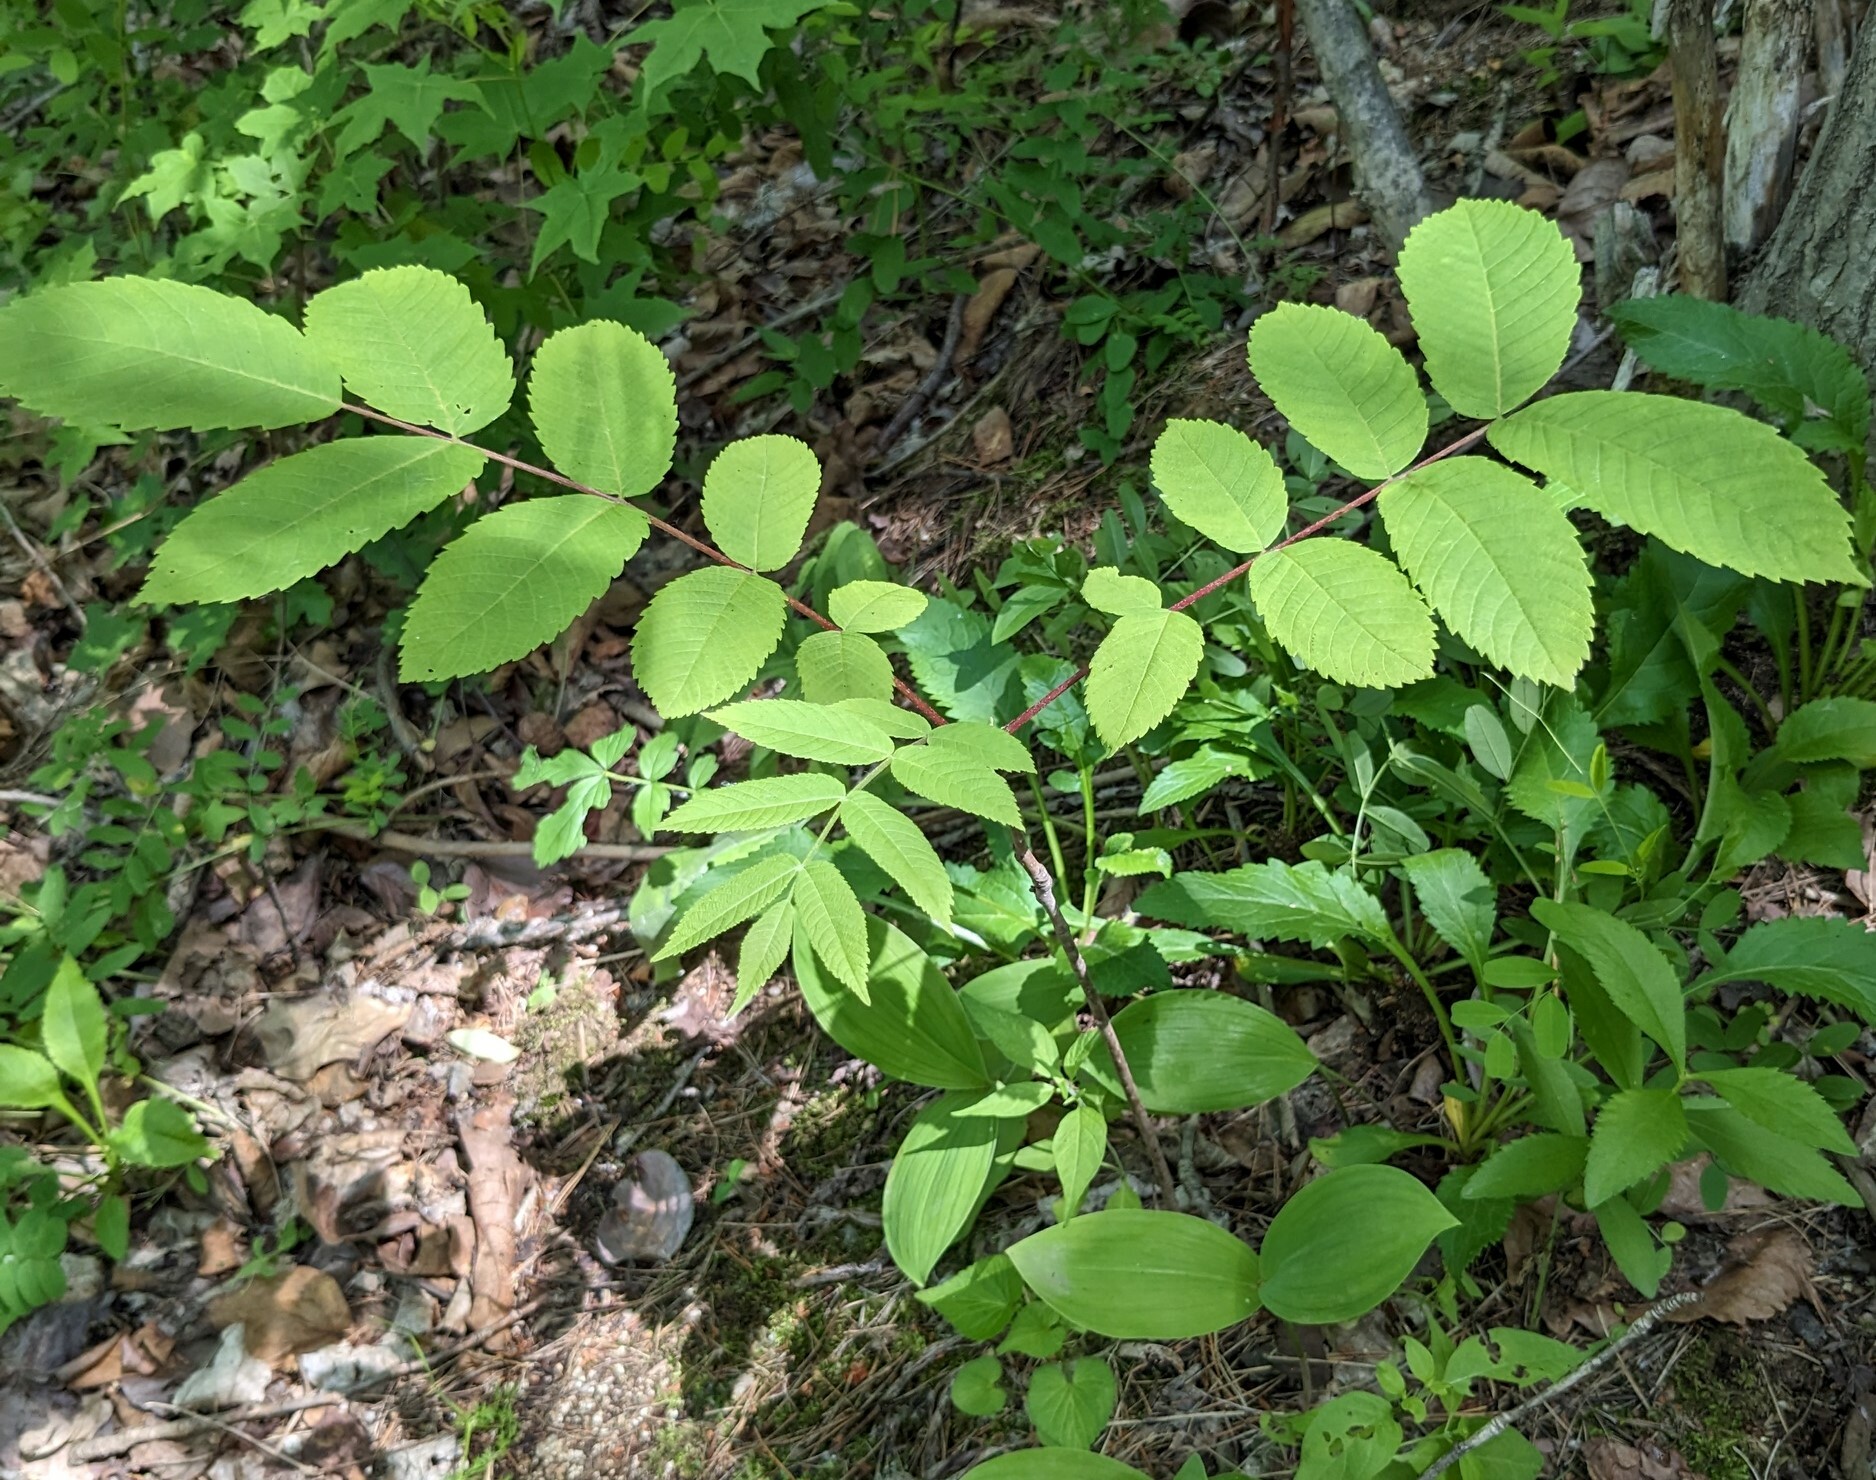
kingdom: Plantae
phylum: Tracheophyta
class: Magnoliopsida
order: Fagales
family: Juglandaceae
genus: Juglans
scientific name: Juglans mandshurica
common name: Manchurian walnut
